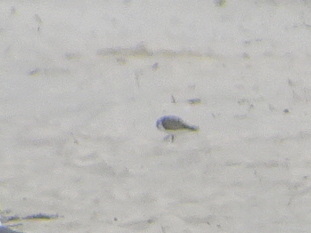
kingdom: Animalia
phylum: Chordata
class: Aves
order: Charadriiformes
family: Scolopacidae
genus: Calidris
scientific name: Calidris alba
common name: Sanderling
